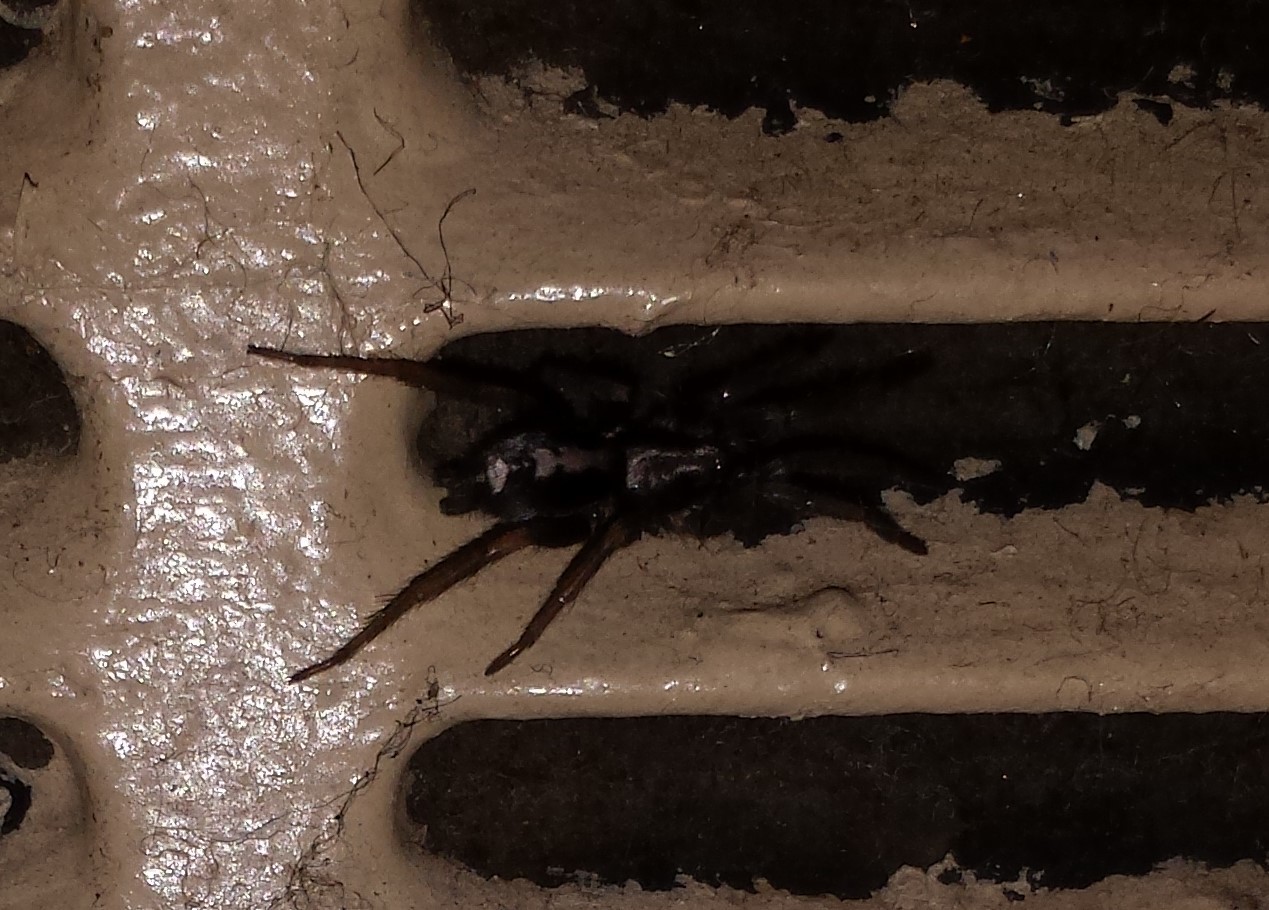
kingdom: Animalia
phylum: Arthropoda
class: Arachnida
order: Araneae
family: Gnaphosidae
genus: Herpyllus
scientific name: Herpyllus ecclesiasticus
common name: Eastern parson spider
